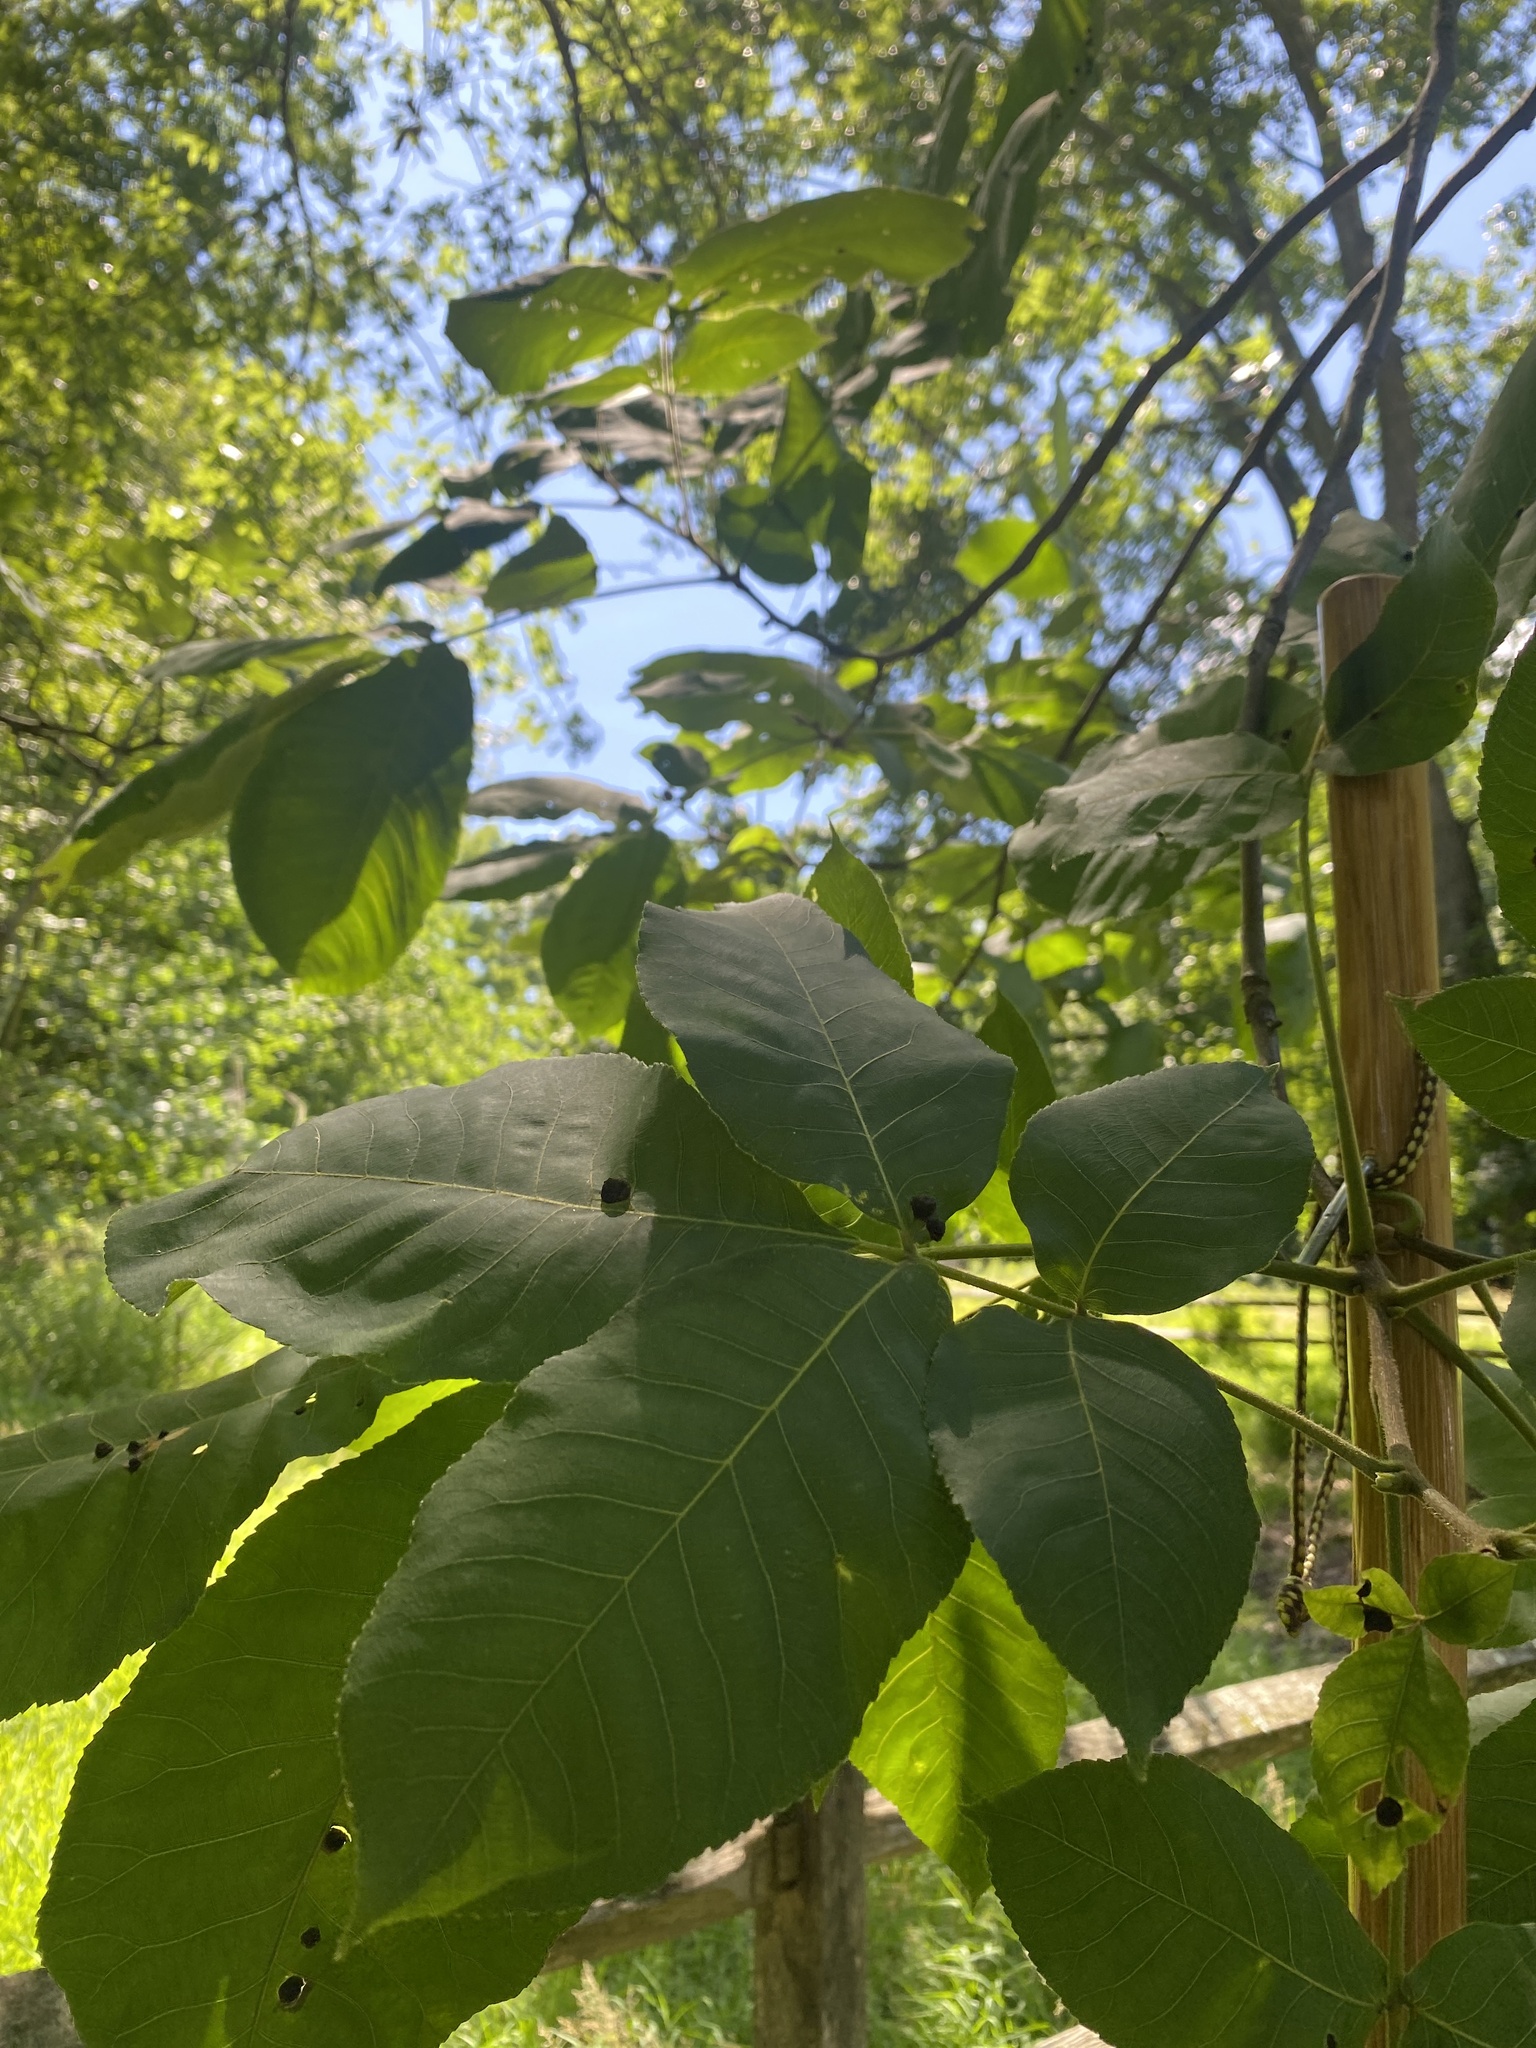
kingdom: Animalia
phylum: Arthropoda
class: Insecta
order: Hemiptera
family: Phylloxeridae
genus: Phylloxera
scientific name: Phylloxera caryae-globuli
